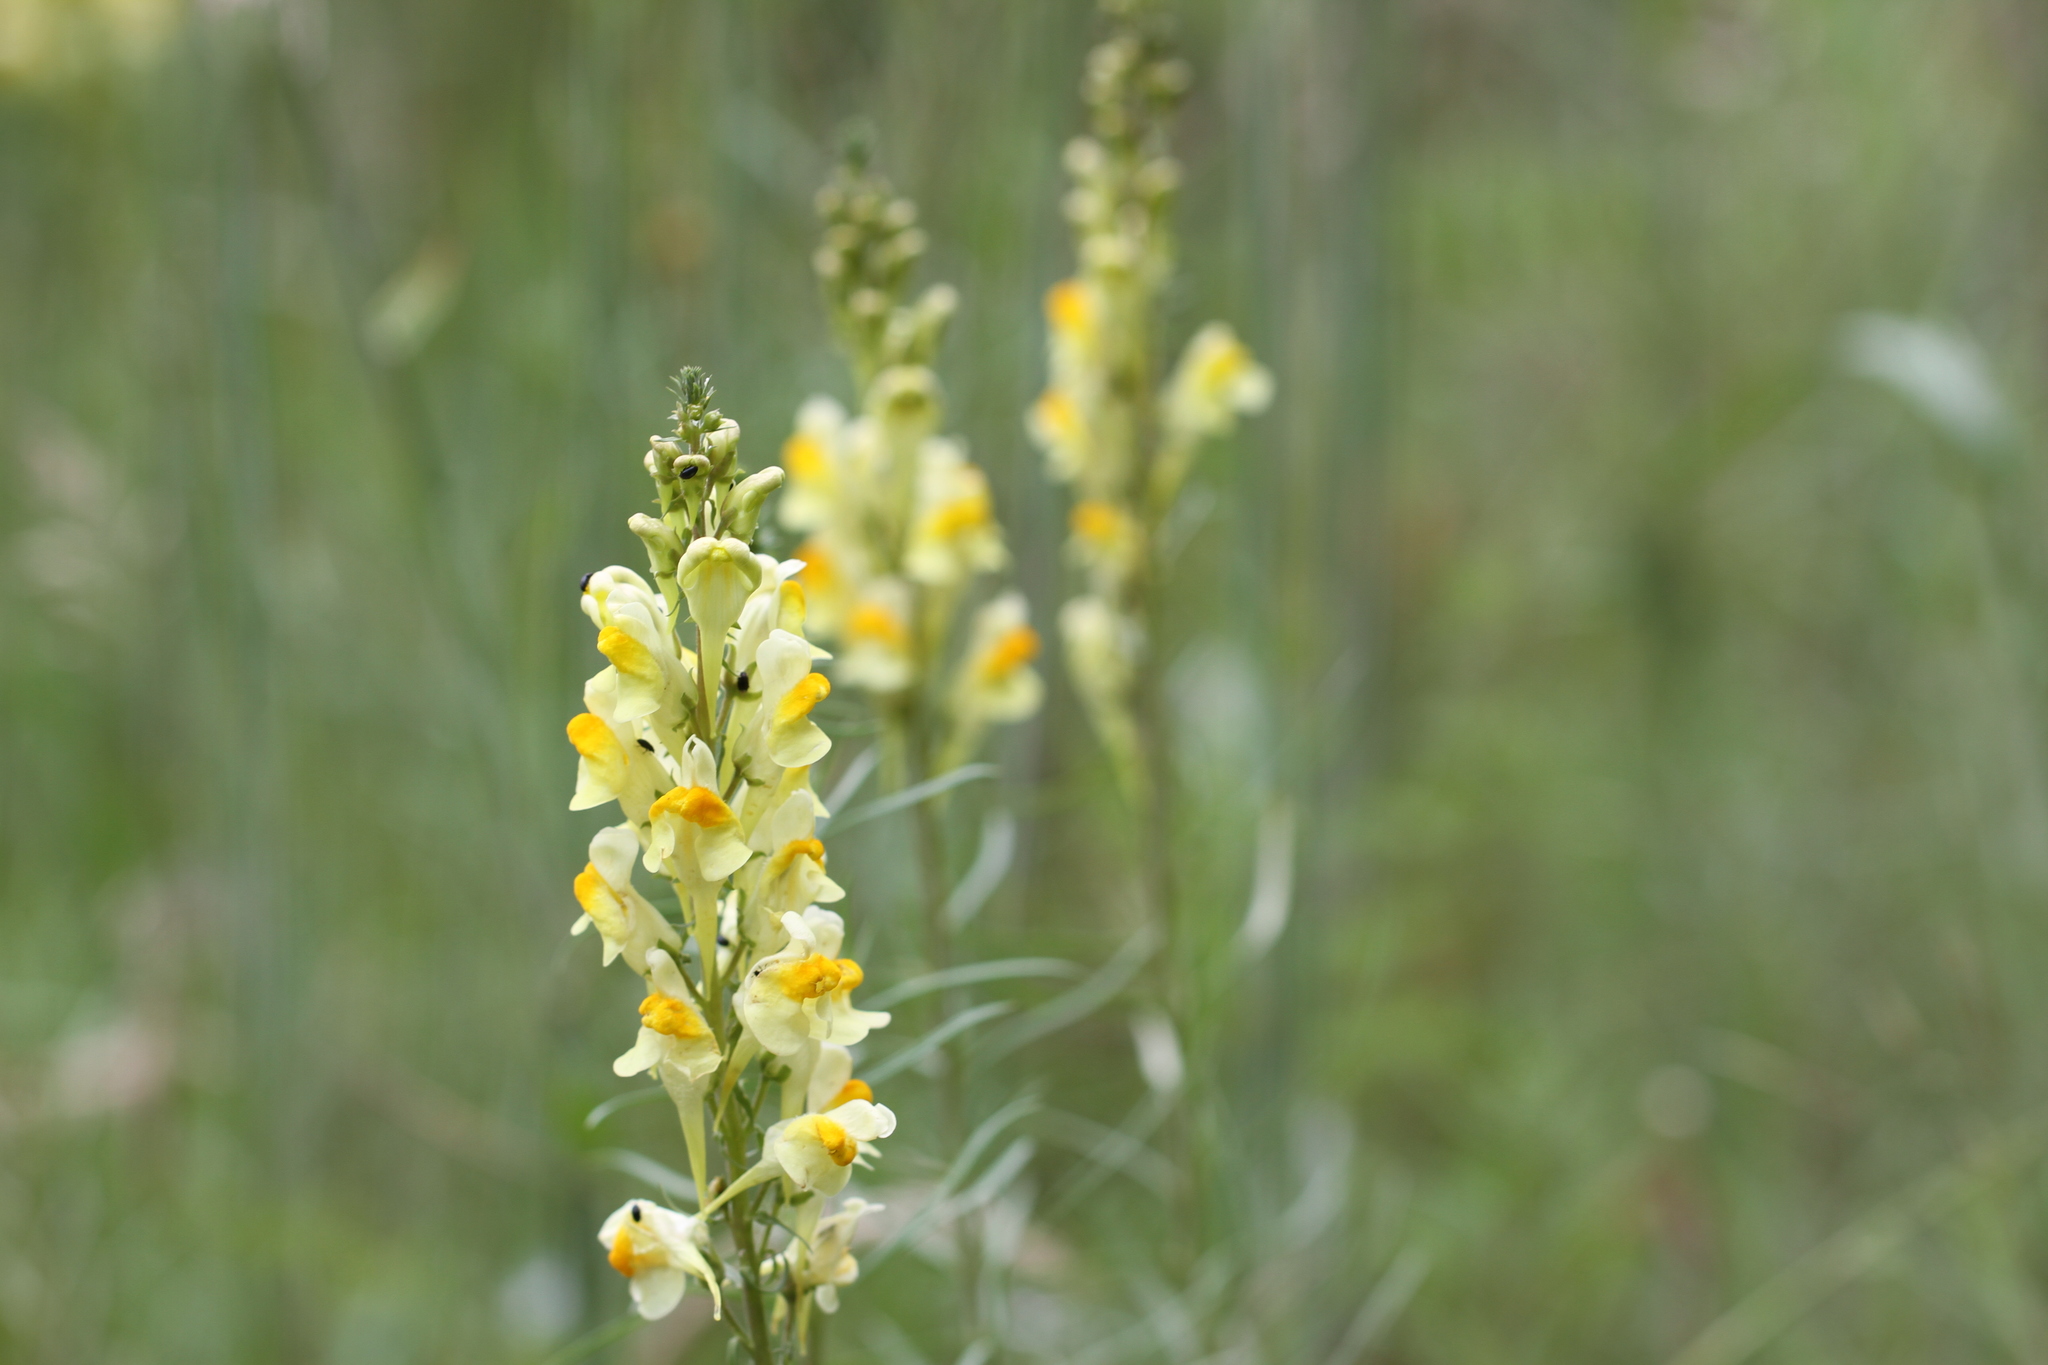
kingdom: Plantae
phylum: Tracheophyta
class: Magnoliopsida
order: Lamiales
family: Plantaginaceae
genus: Linaria
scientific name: Linaria vulgaris
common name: Butter and eggs
